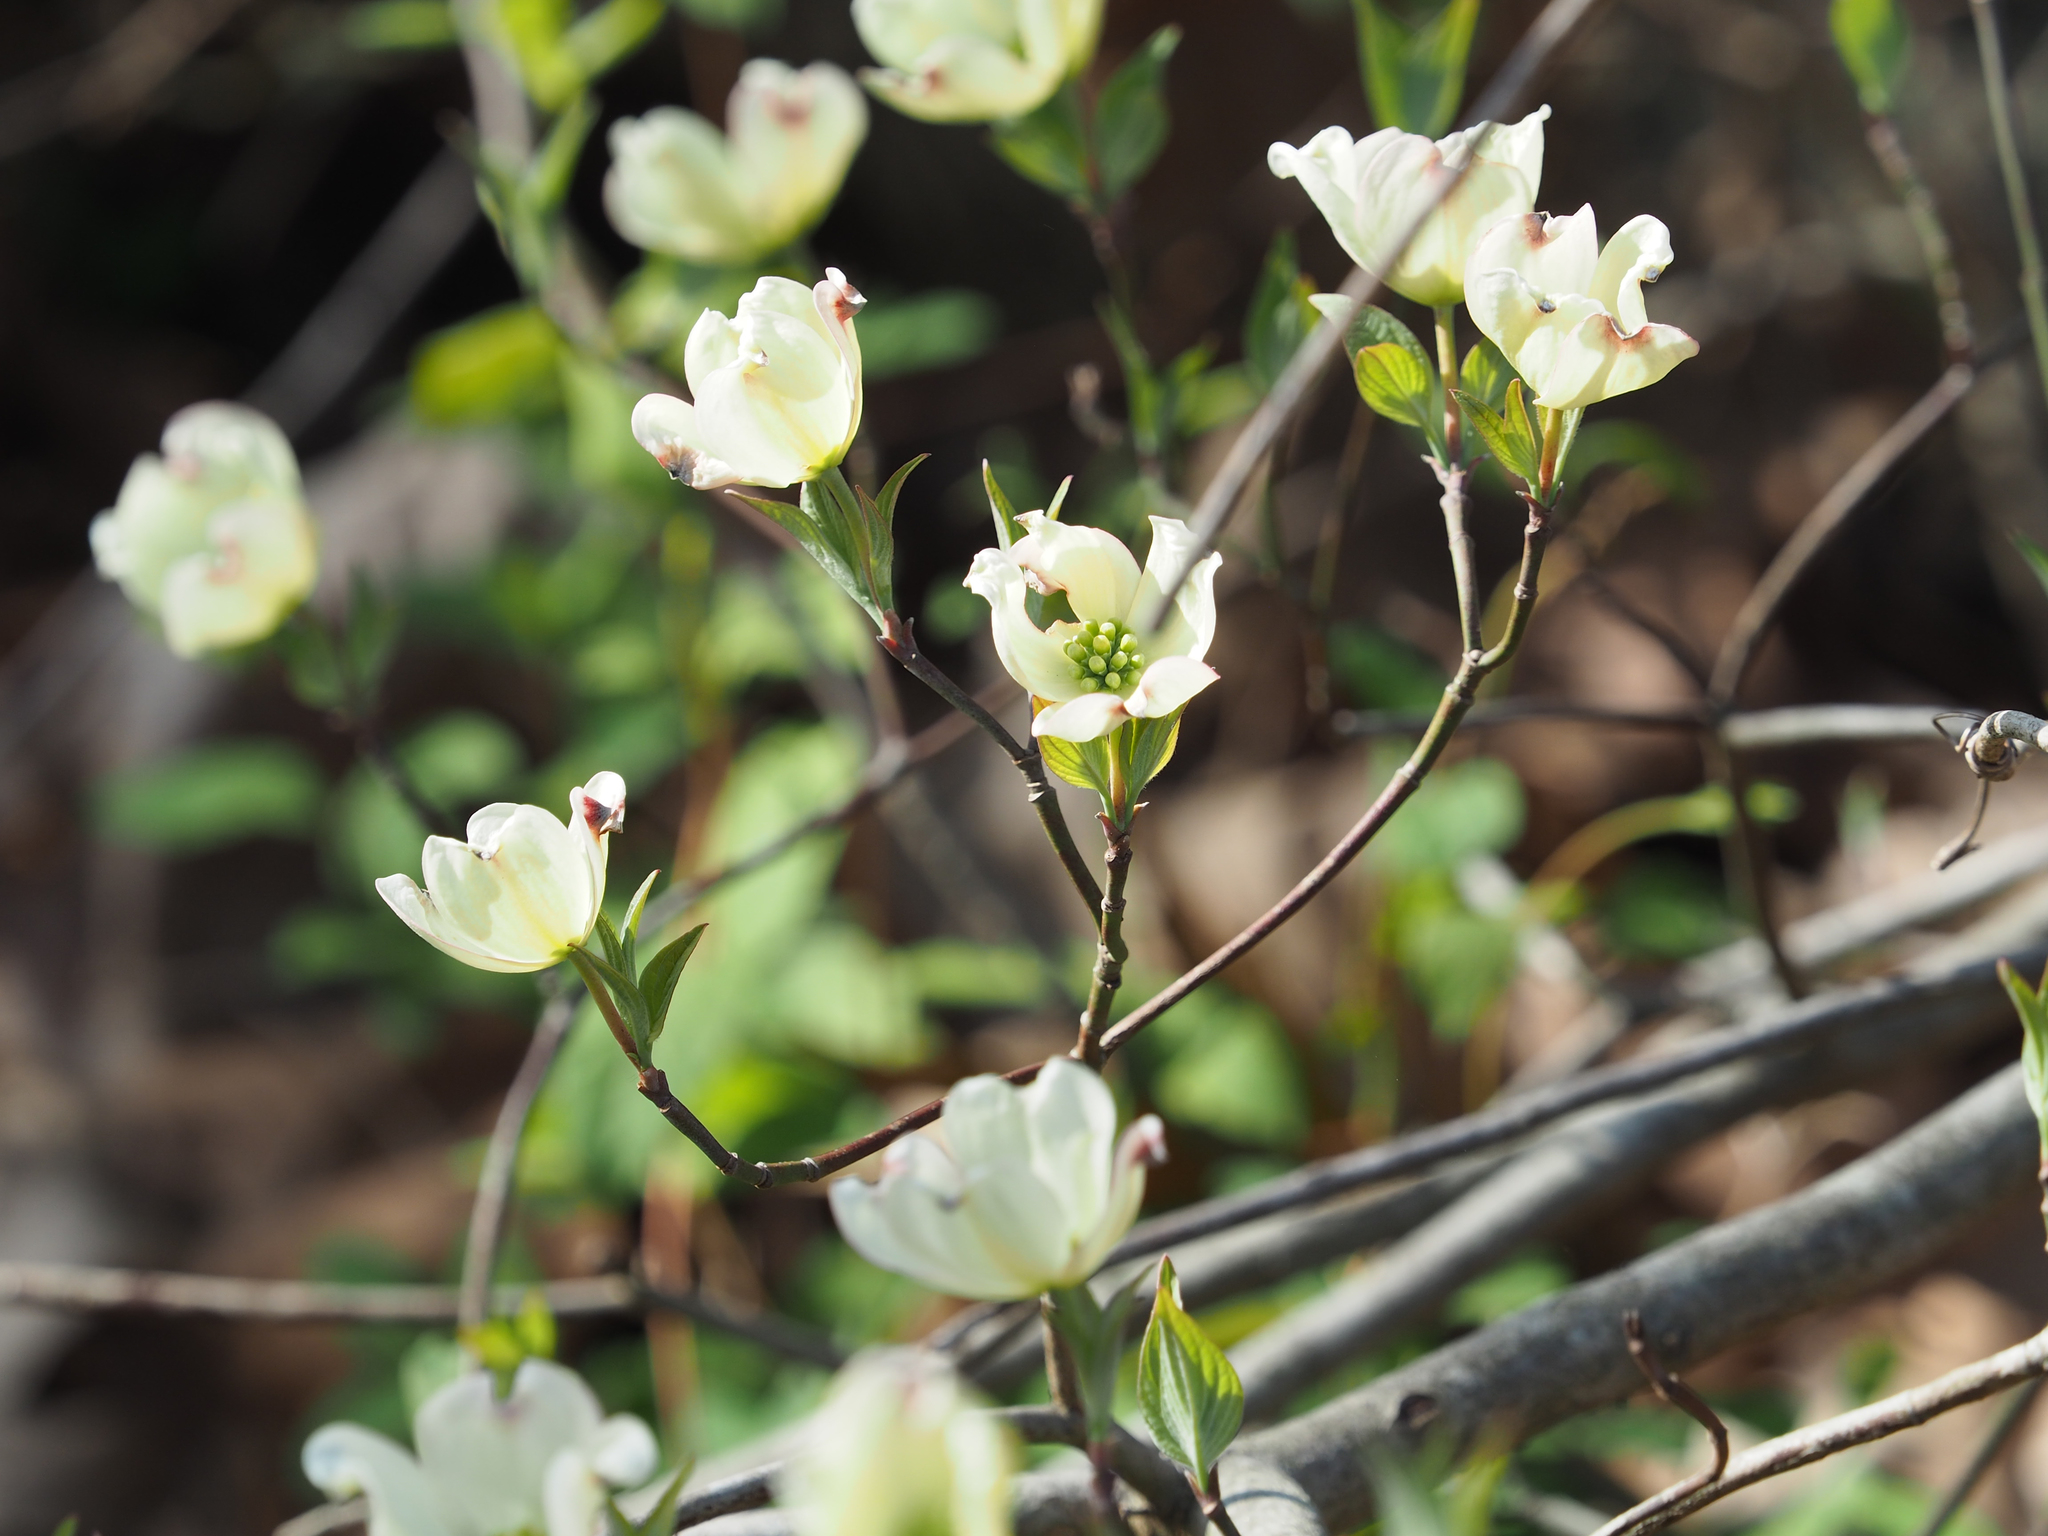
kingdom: Plantae
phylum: Tracheophyta
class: Magnoliopsida
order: Cornales
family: Cornaceae
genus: Cornus
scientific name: Cornus florida
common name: Flowering dogwood
